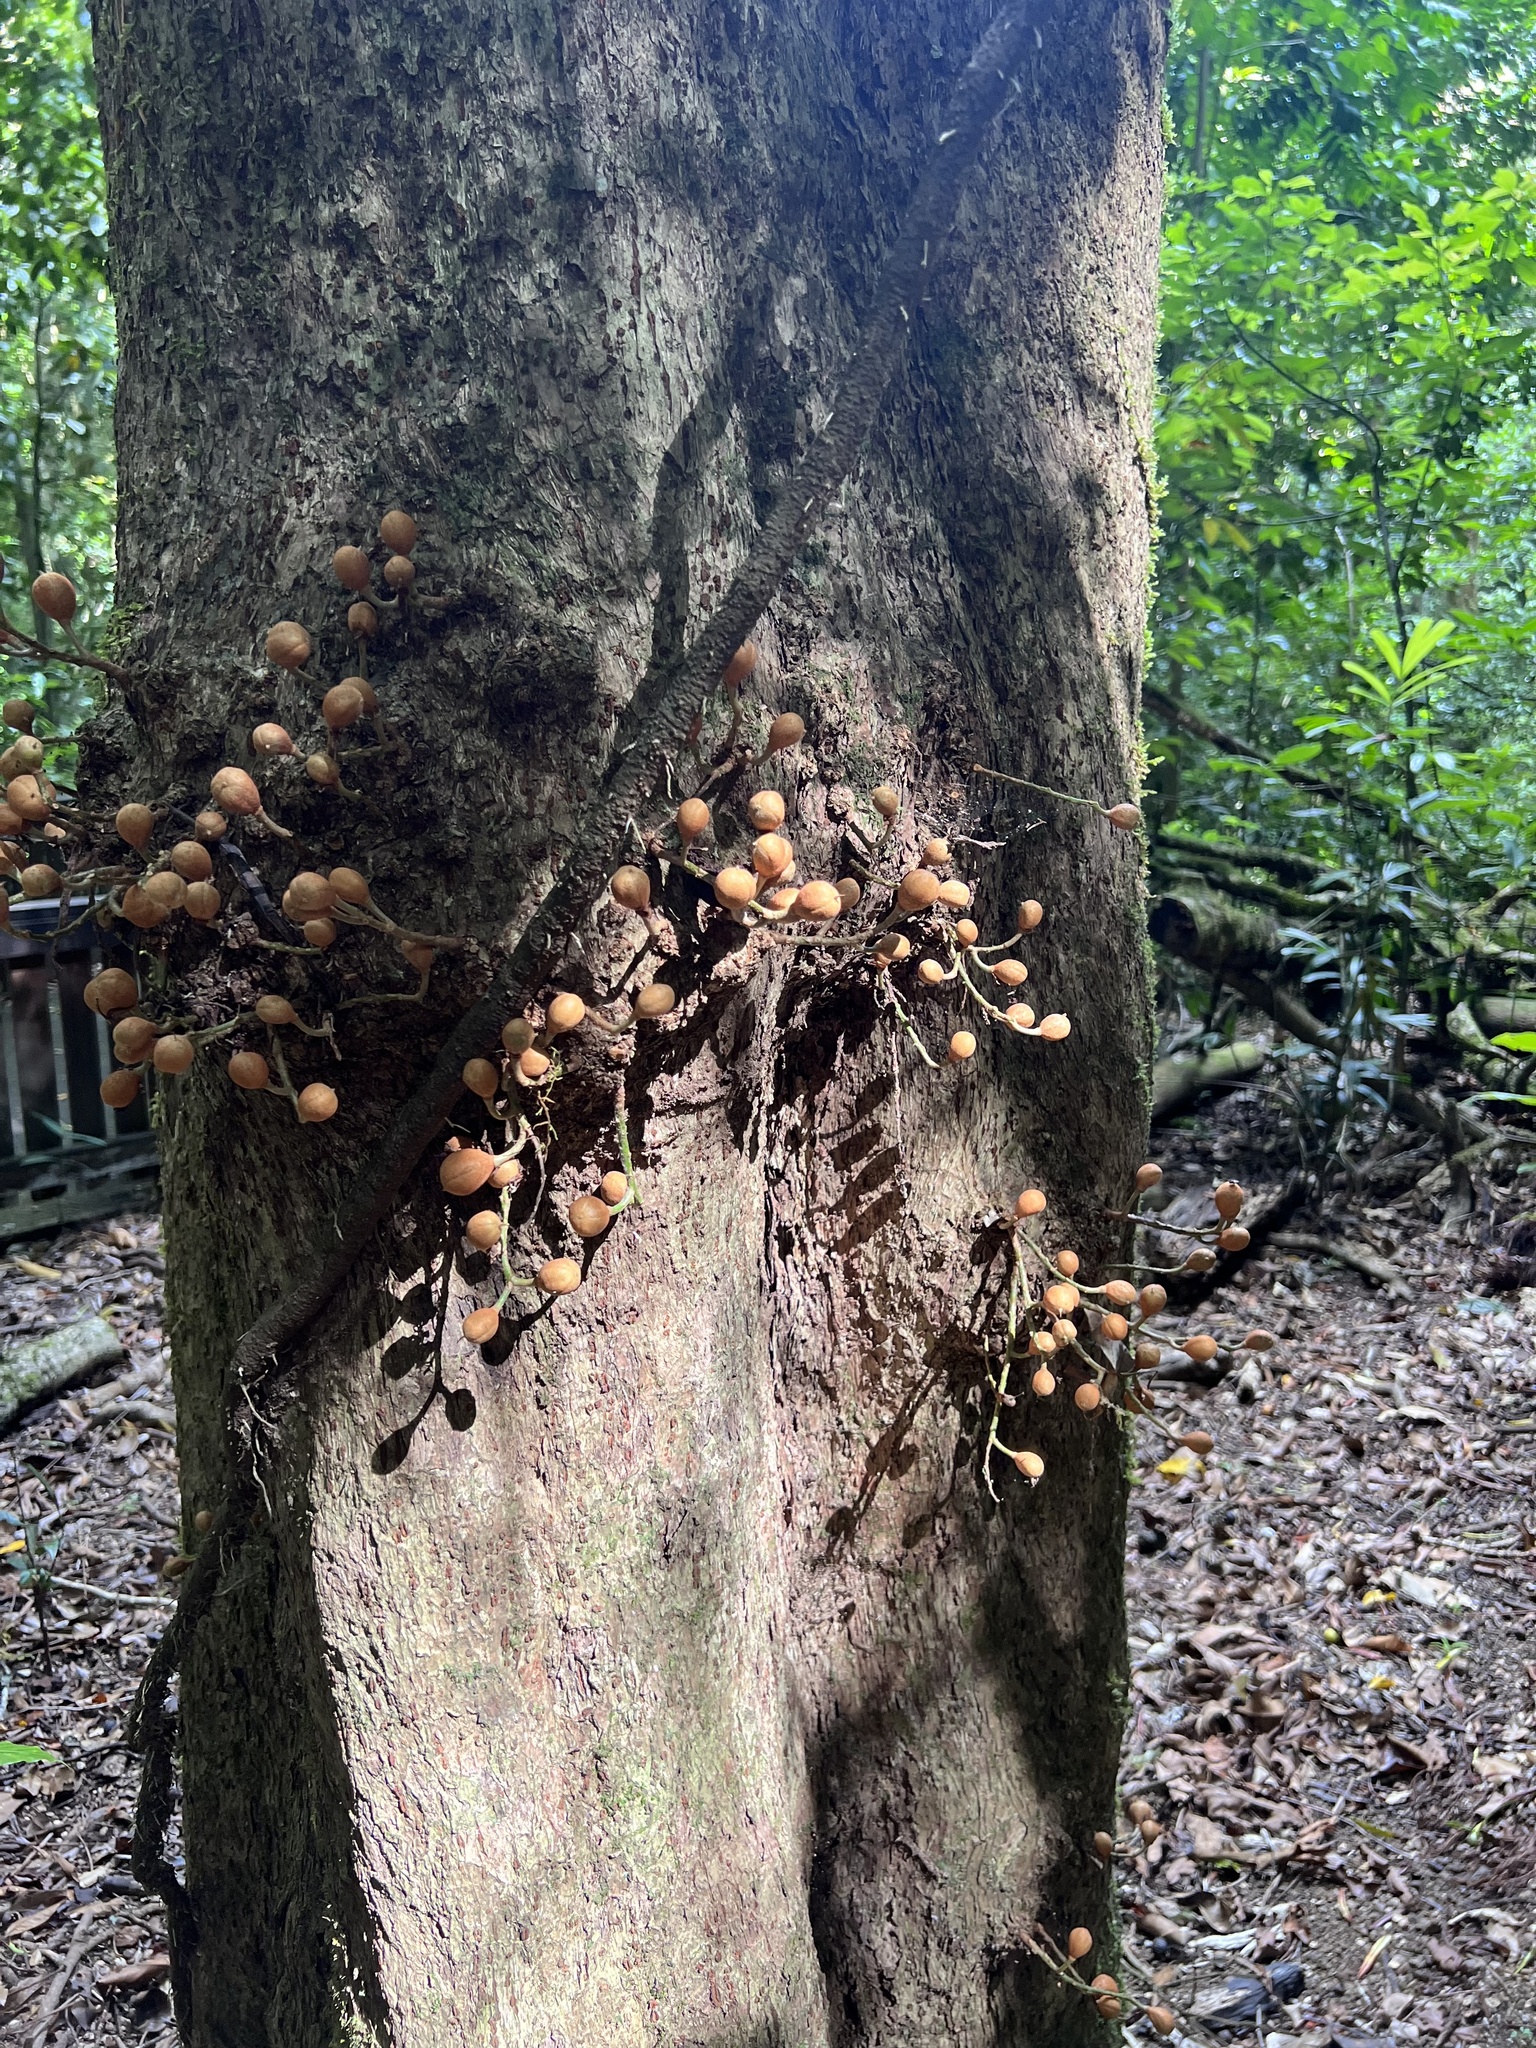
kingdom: Plantae
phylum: Tracheophyta
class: Magnoliopsida
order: Sapindales
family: Meliaceae
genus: Epicharis
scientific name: Epicharis parasitica
